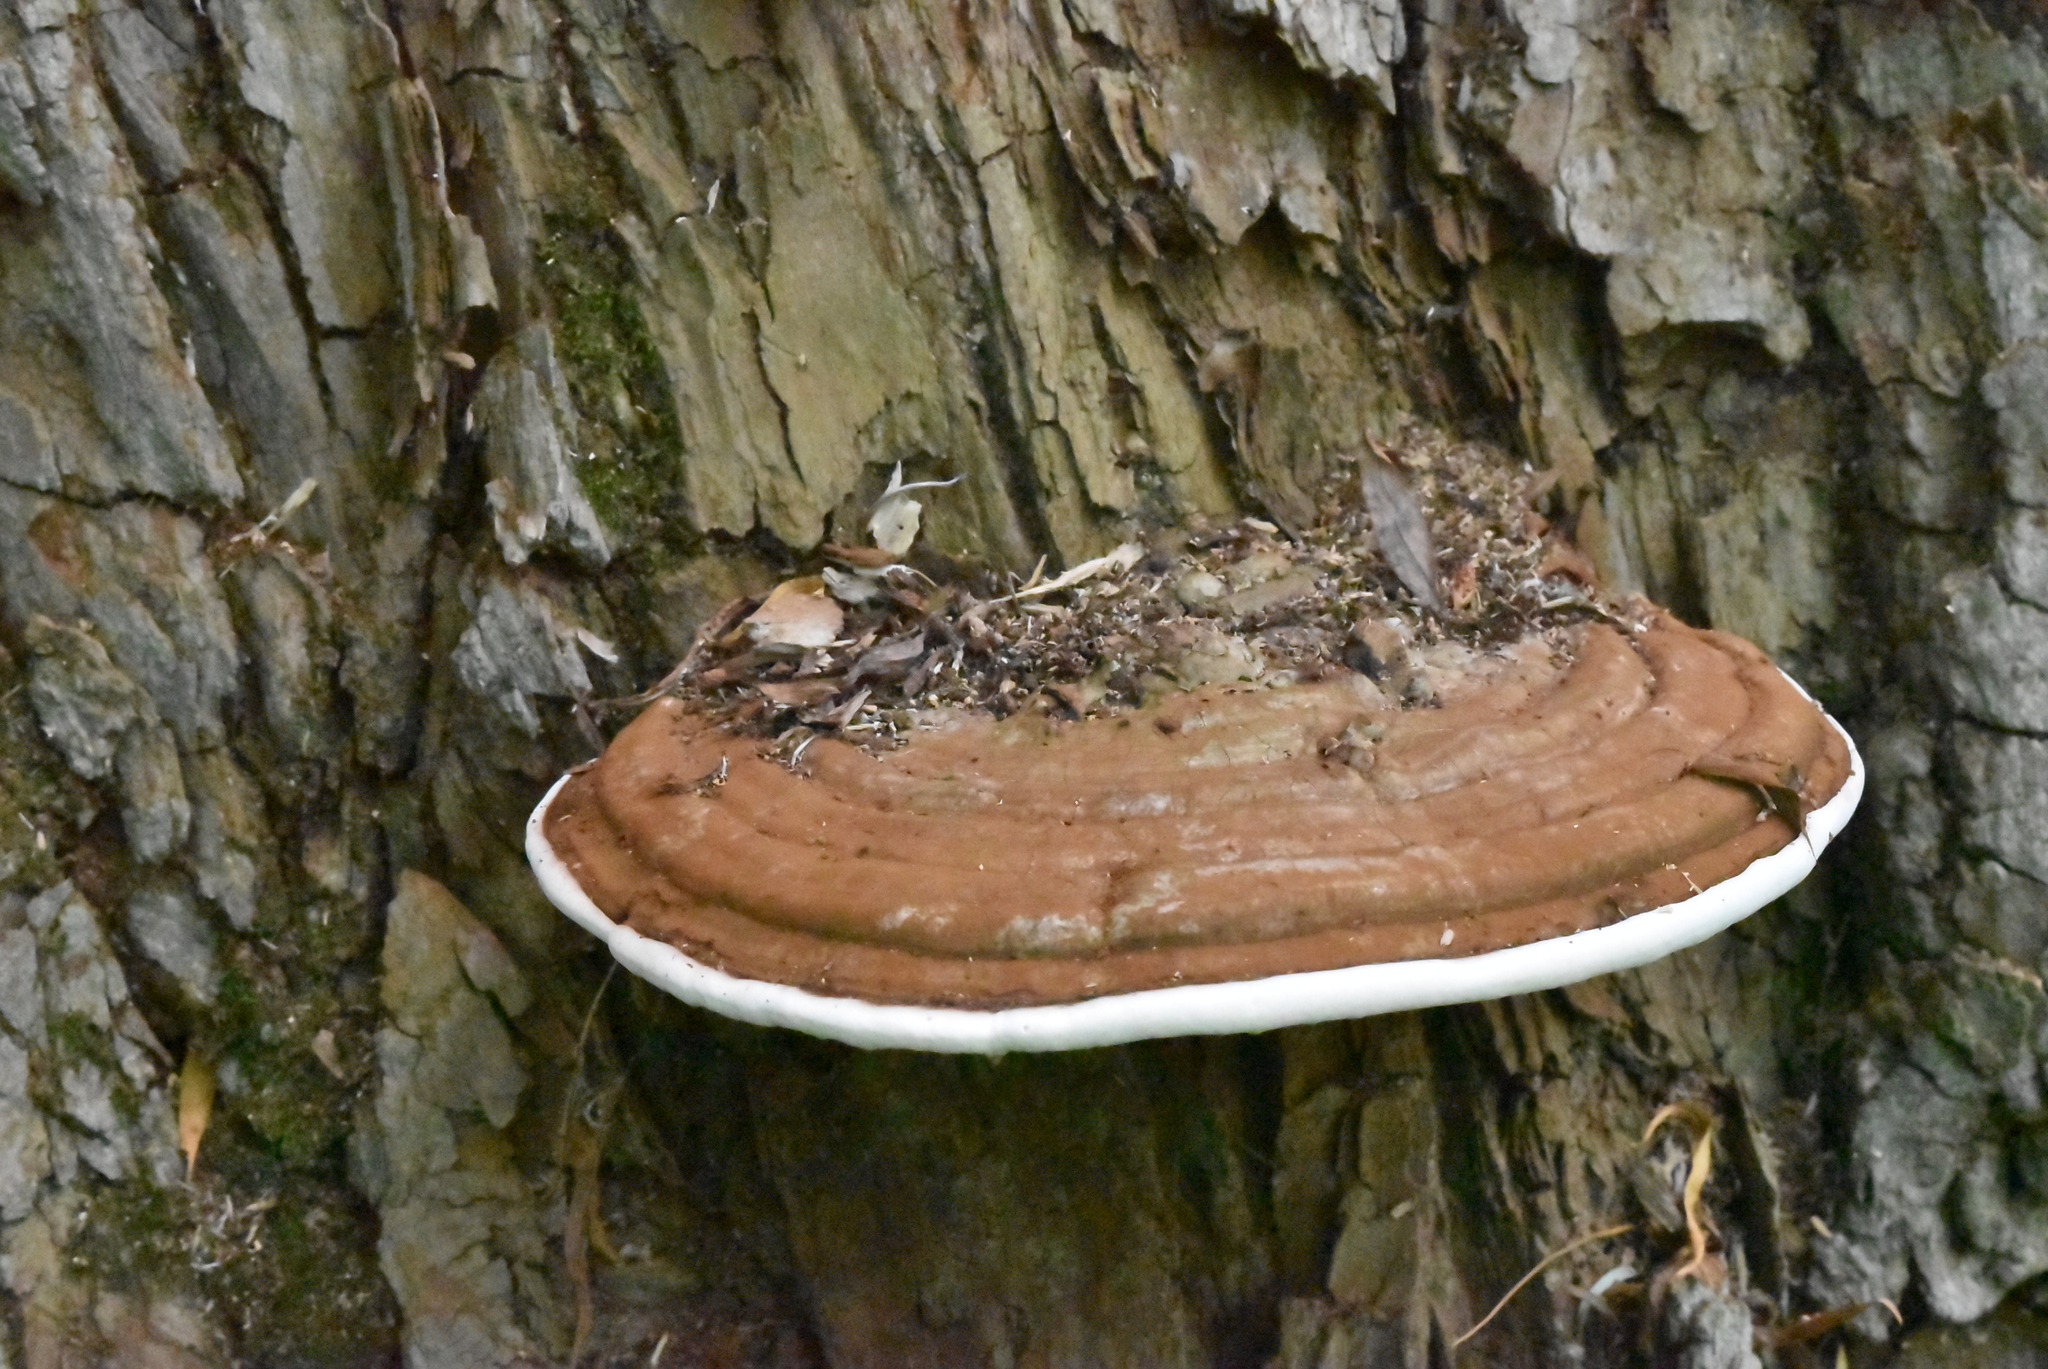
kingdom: Fungi
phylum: Basidiomycota
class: Agaricomycetes
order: Polyporales
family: Polyporaceae
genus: Ganoderma
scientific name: Ganoderma applanatum
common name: Artist's bracket
